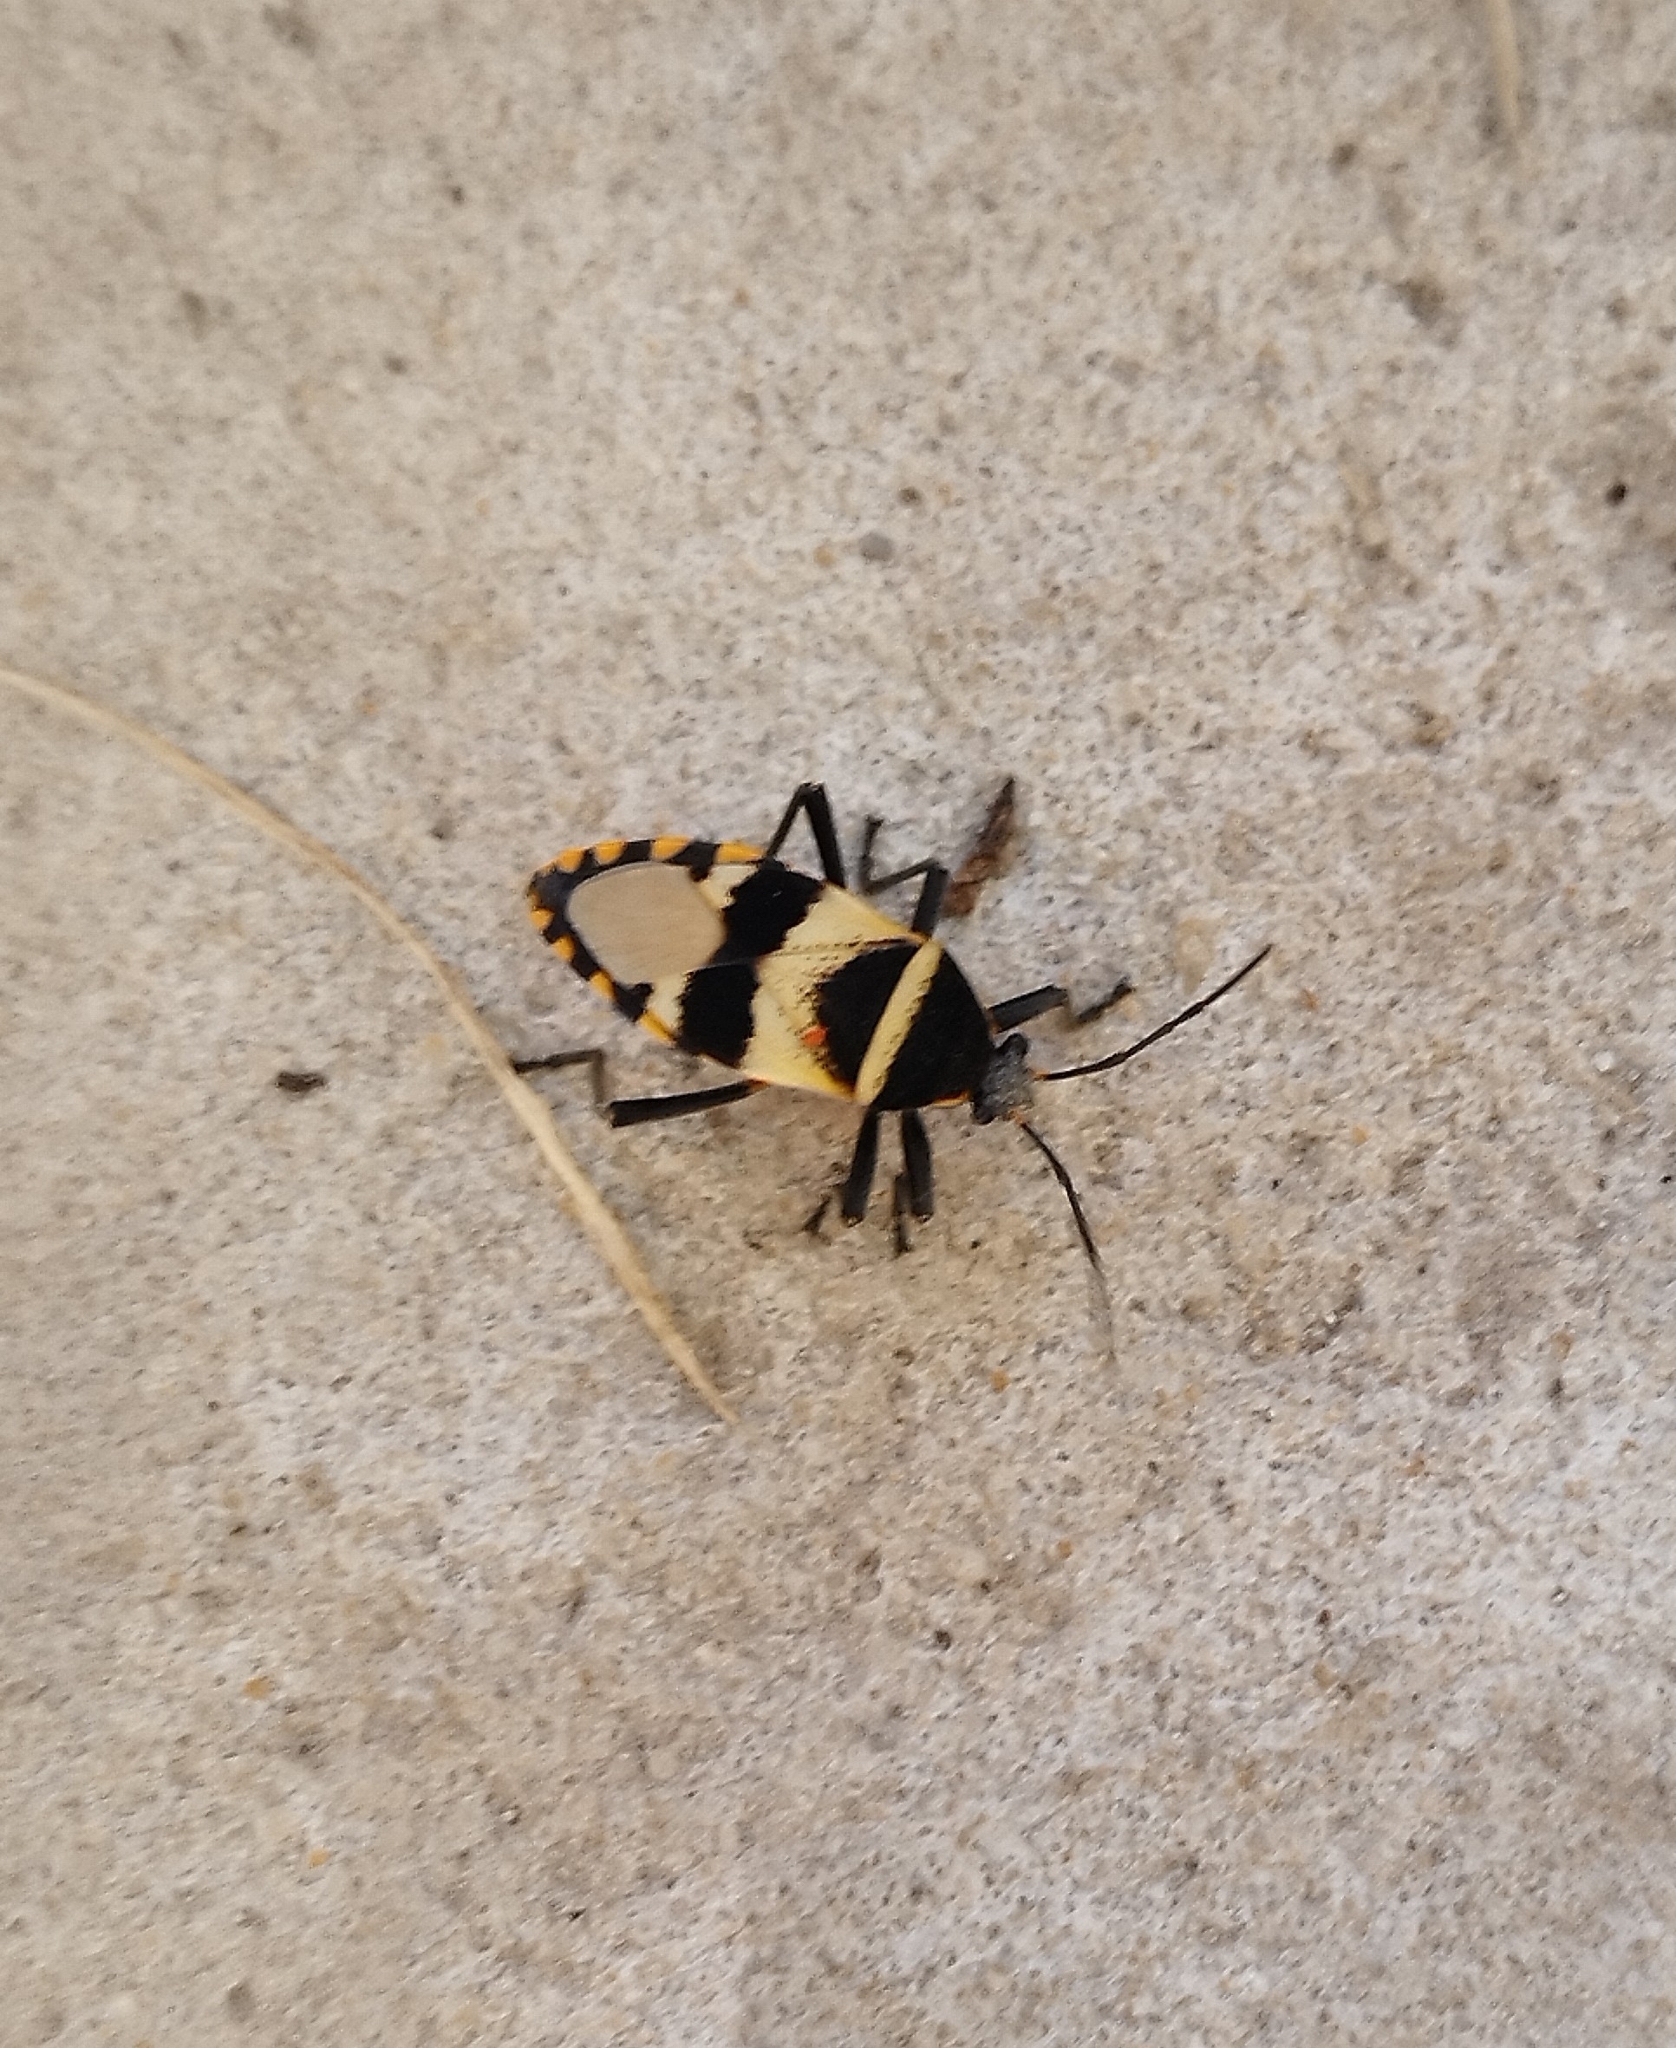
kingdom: Animalia
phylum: Arthropoda
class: Insecta
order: Hemiptera
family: Largidae
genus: Largus
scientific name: Largus fasciatus
